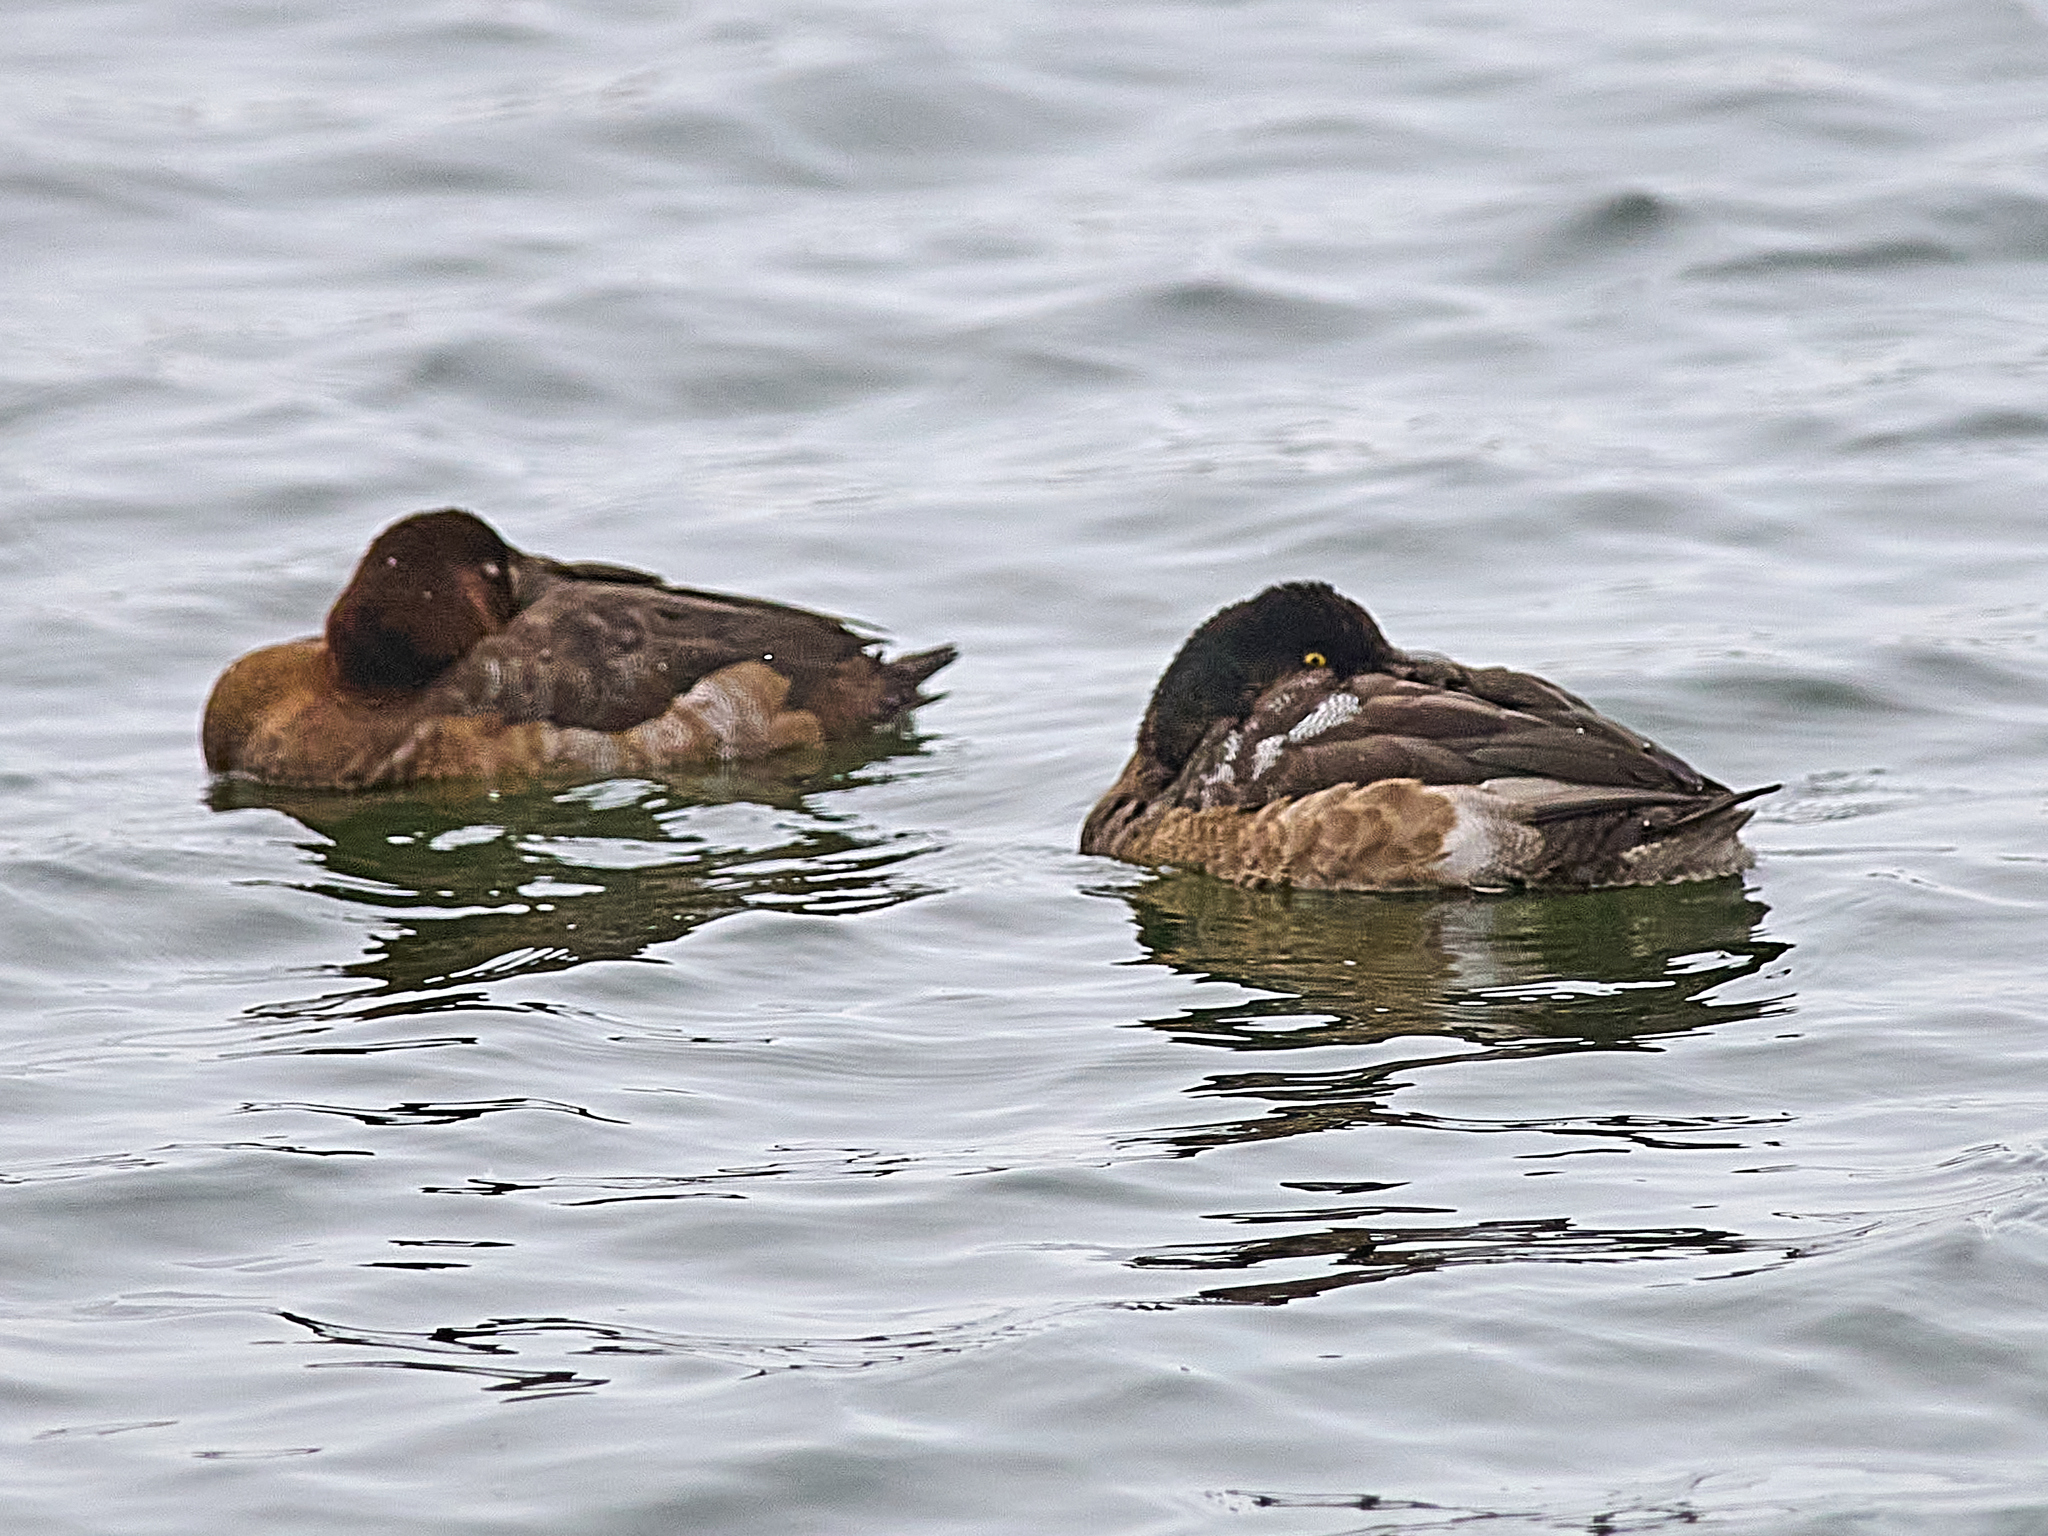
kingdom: Animalia
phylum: Chordata
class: Aves
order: Anseriformes
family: Anatidae
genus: Aythya
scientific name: Aythya marila
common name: Greater scaup
